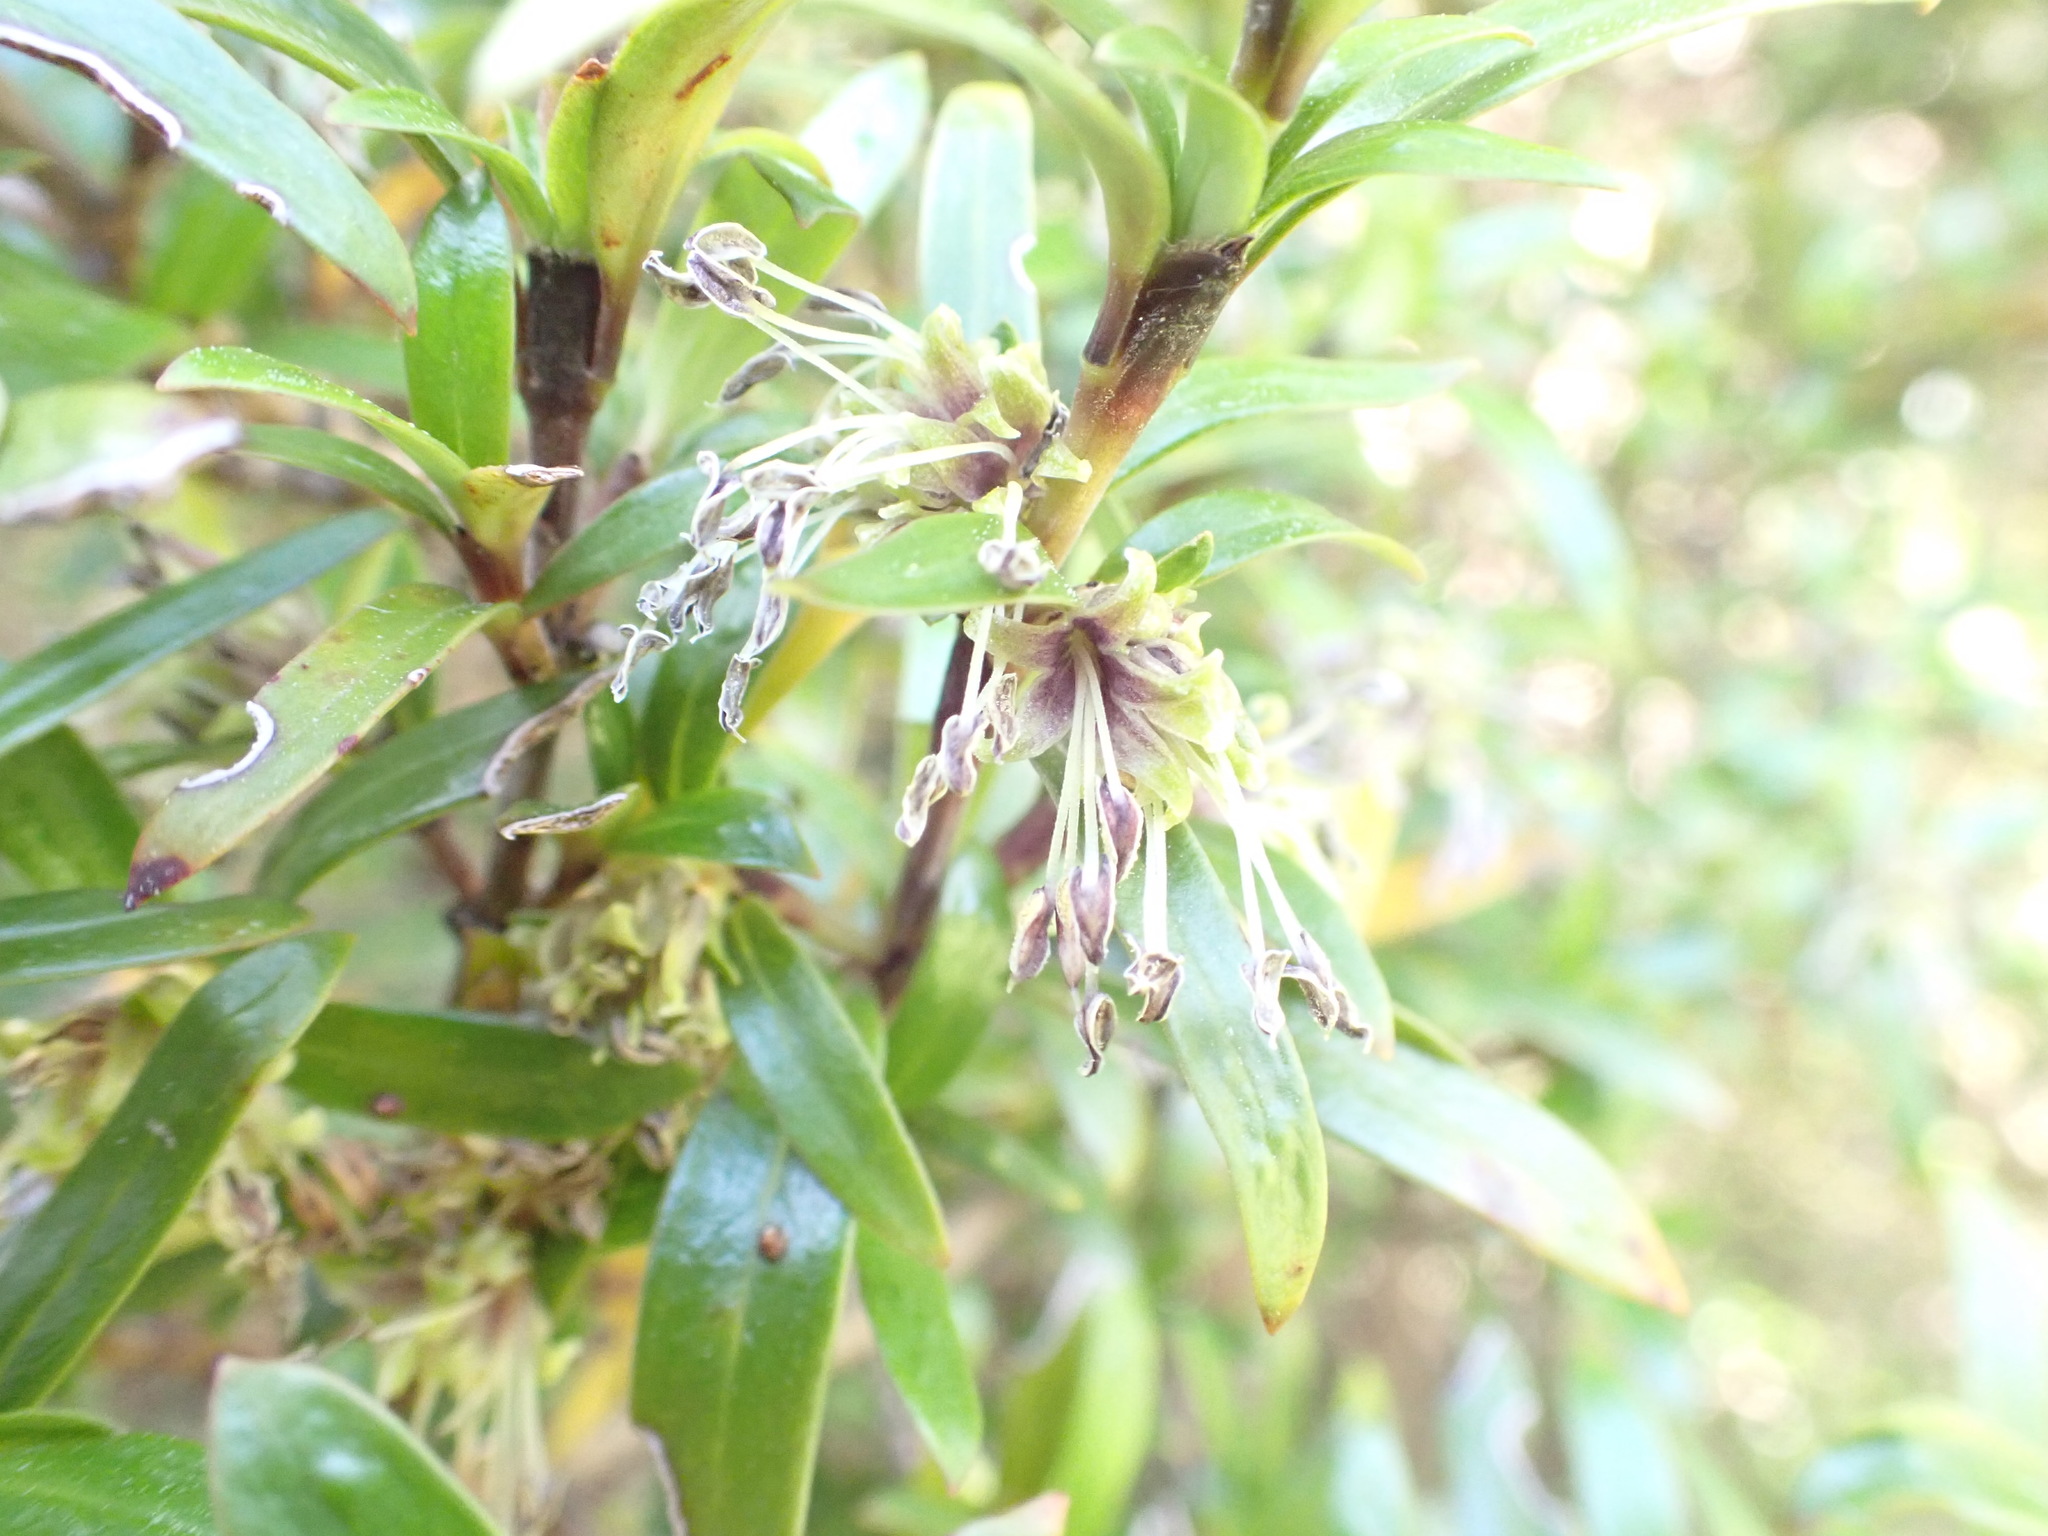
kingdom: Plantae
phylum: Tracheophyta
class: Magnoliopsida
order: Gentianales
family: Rubiaceae
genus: Coprosma
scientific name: Coprosma linariifolia
